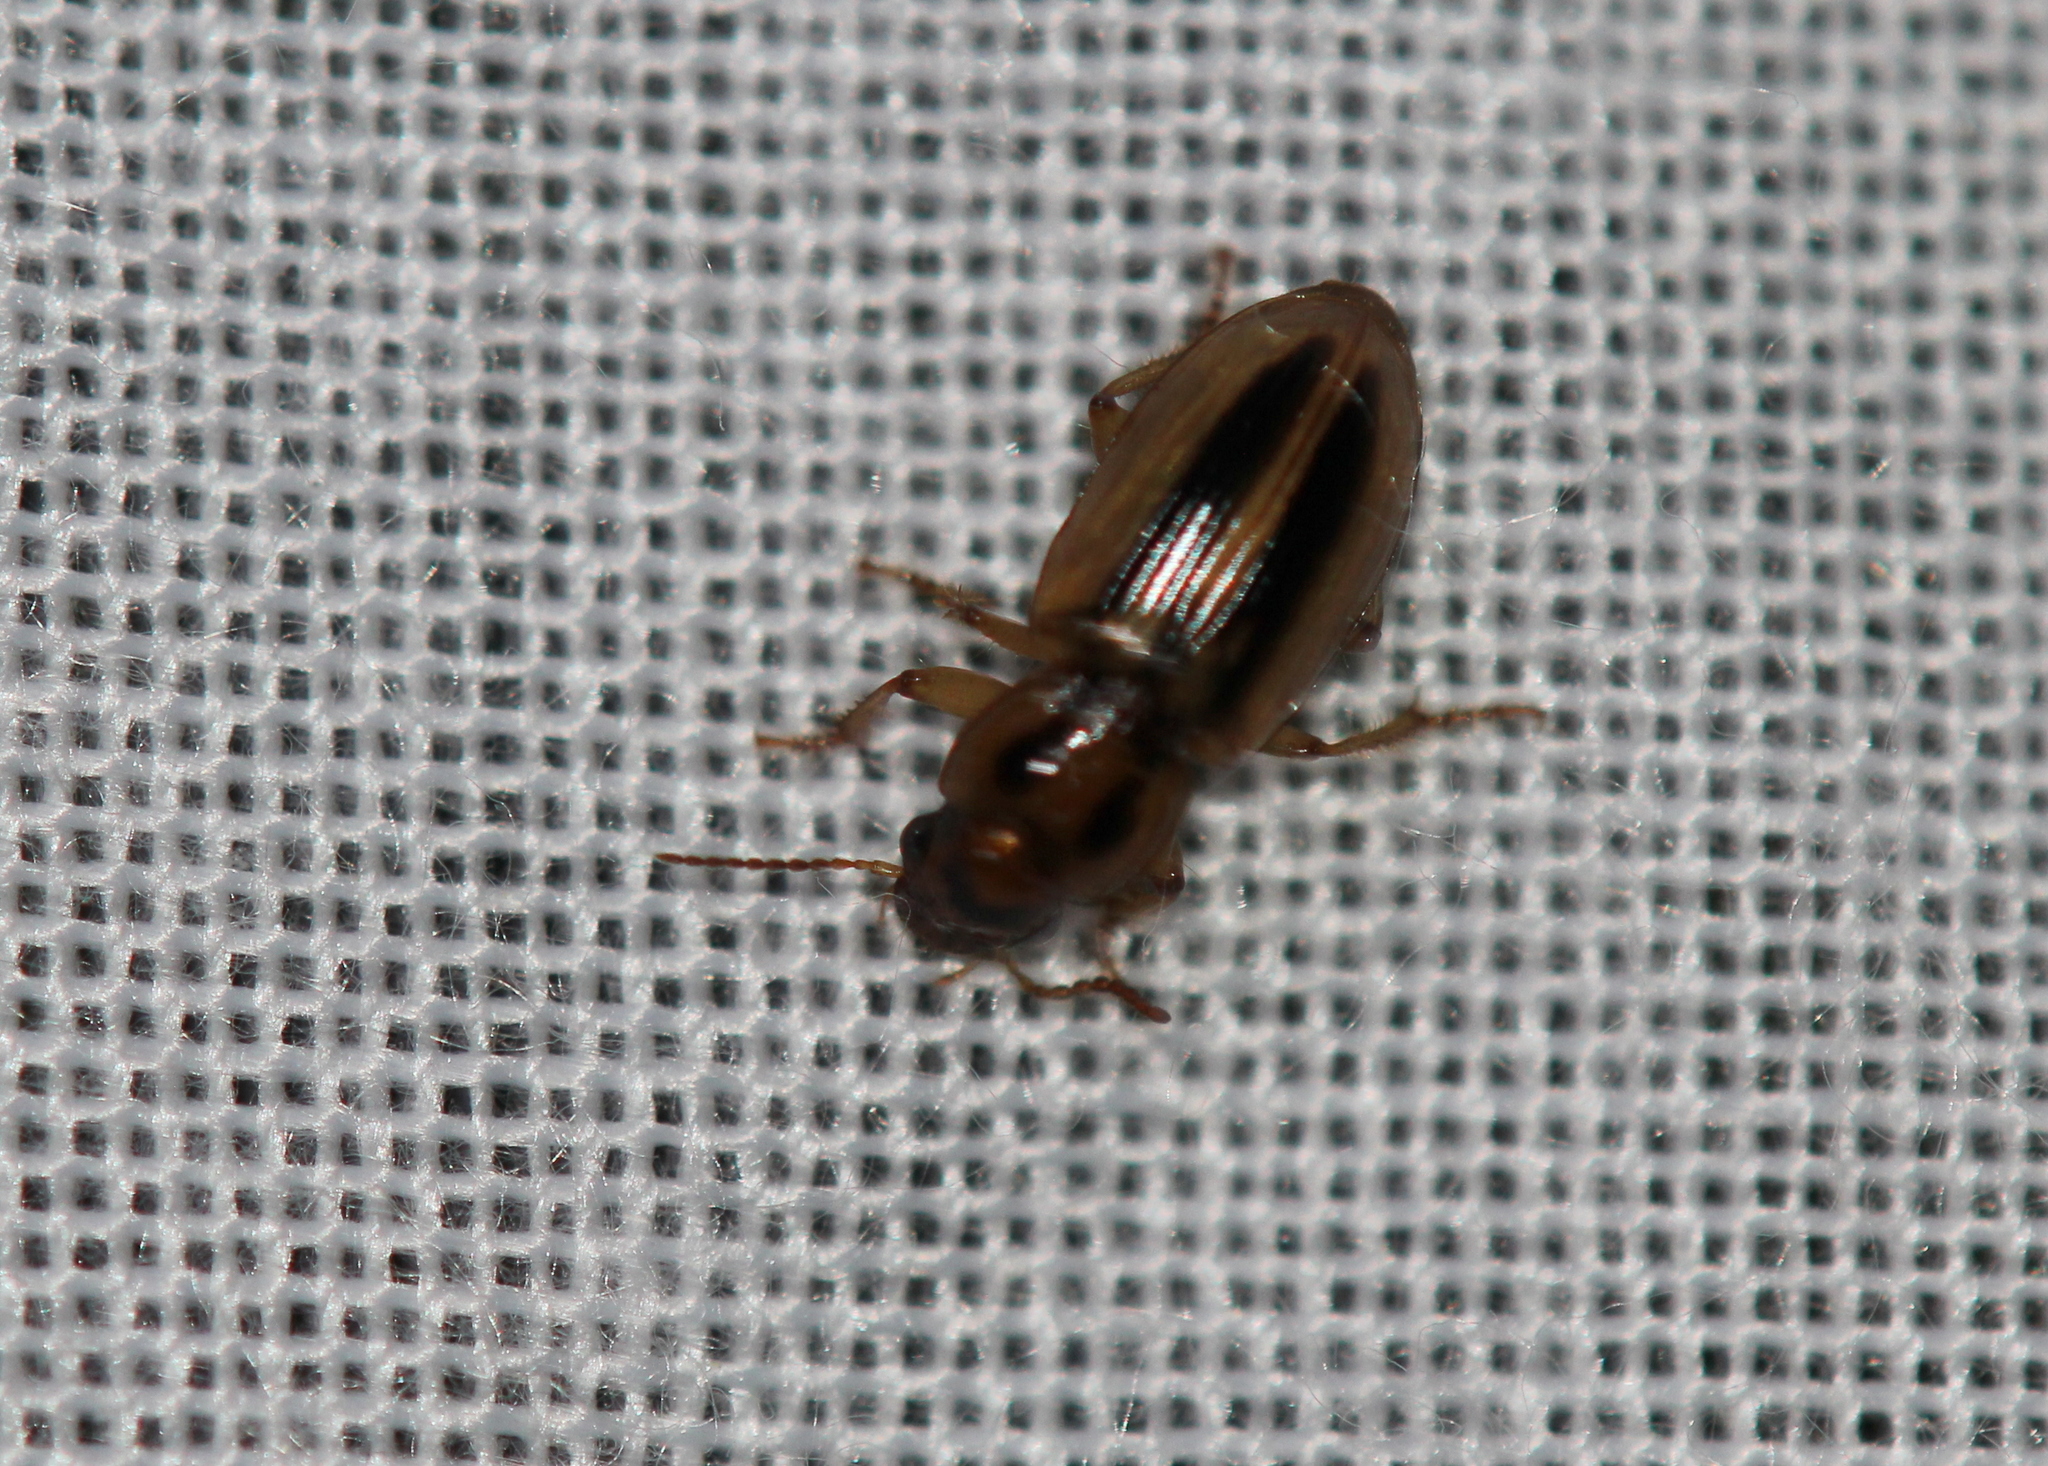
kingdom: Animalia
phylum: Arthropoda
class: Insecta
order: Coleoptera
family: Carabidae
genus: Stenolophus
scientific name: Stenolophus lineola
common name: Lined stenolophus
